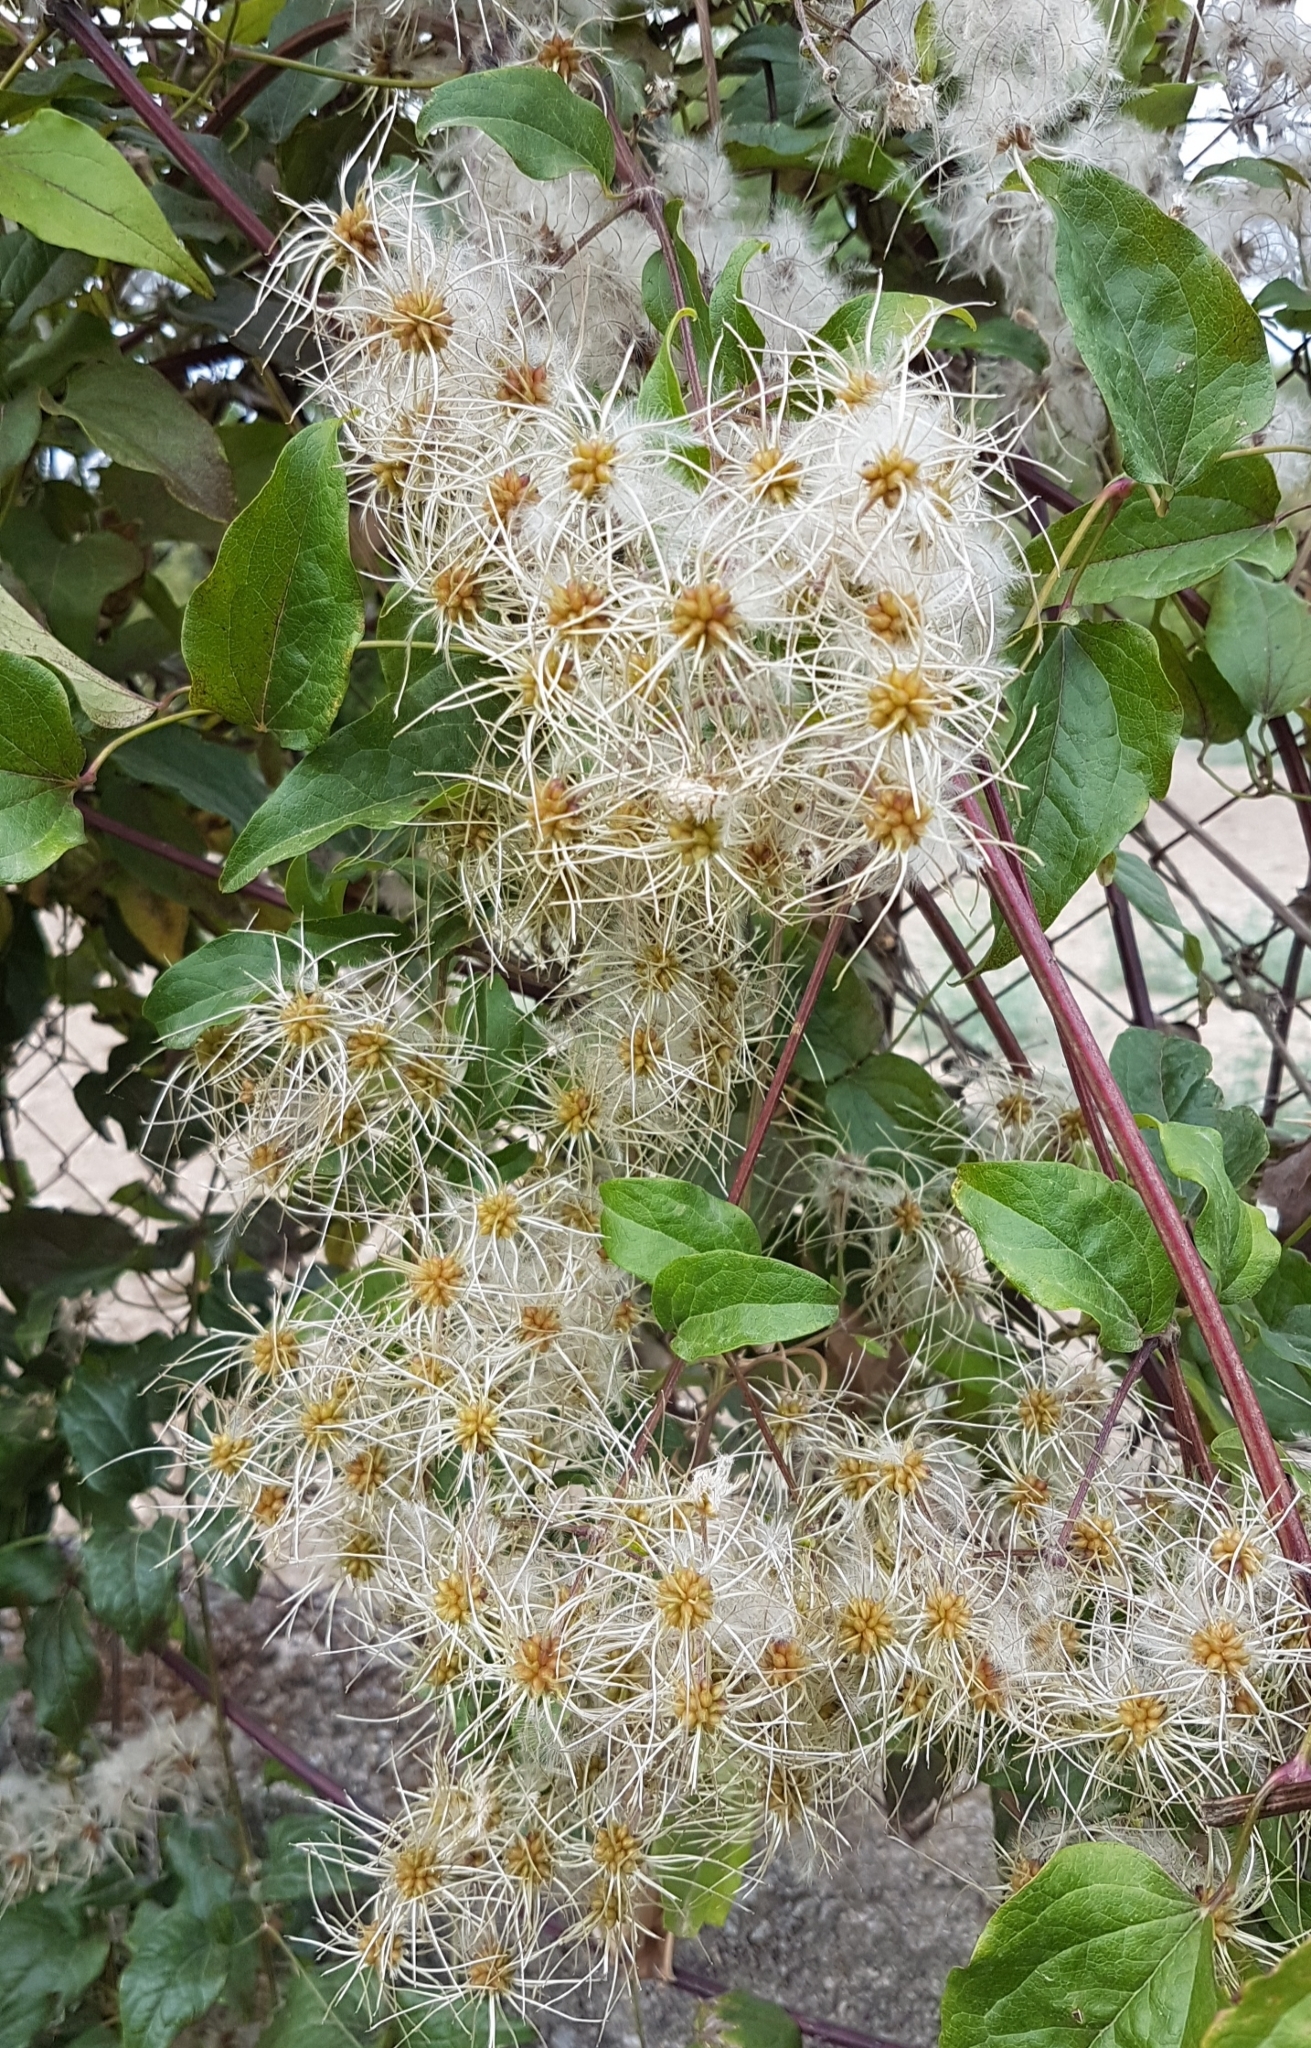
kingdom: Plantae
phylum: Tracheophyta
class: Magnoliopsida
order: Ranunculales
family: Ranunculaceae
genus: Clematis
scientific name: Clematis vitalba
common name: Evergreen clematis
